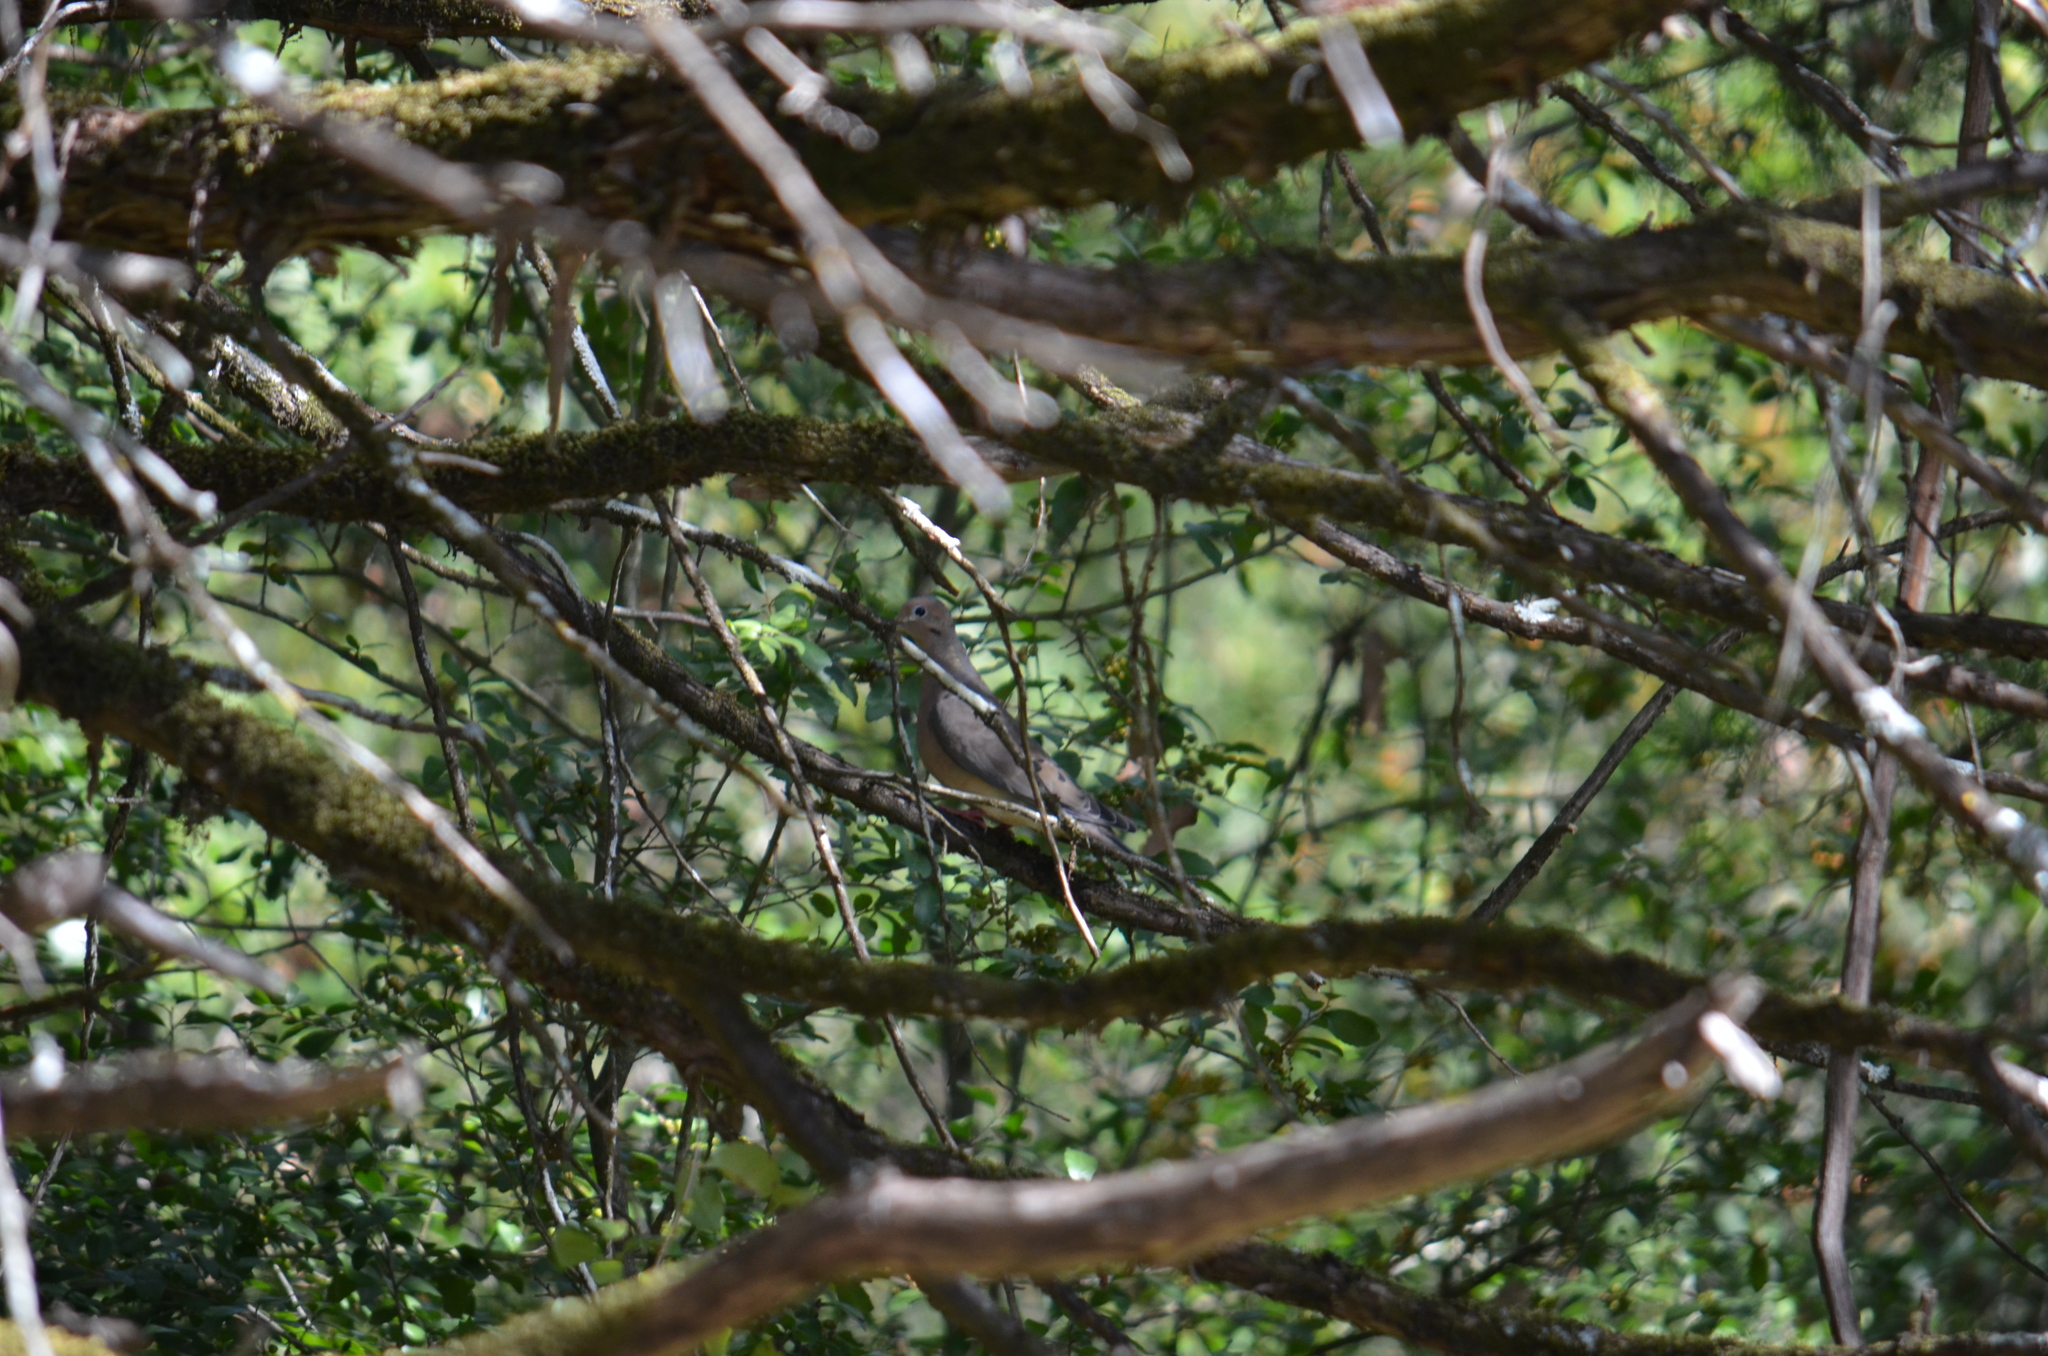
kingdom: Animalia
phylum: Chordata
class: Aves
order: Columbiformes
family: Columbidae
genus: Zenaida
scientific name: Zenaida macroura
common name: Mourning dove
